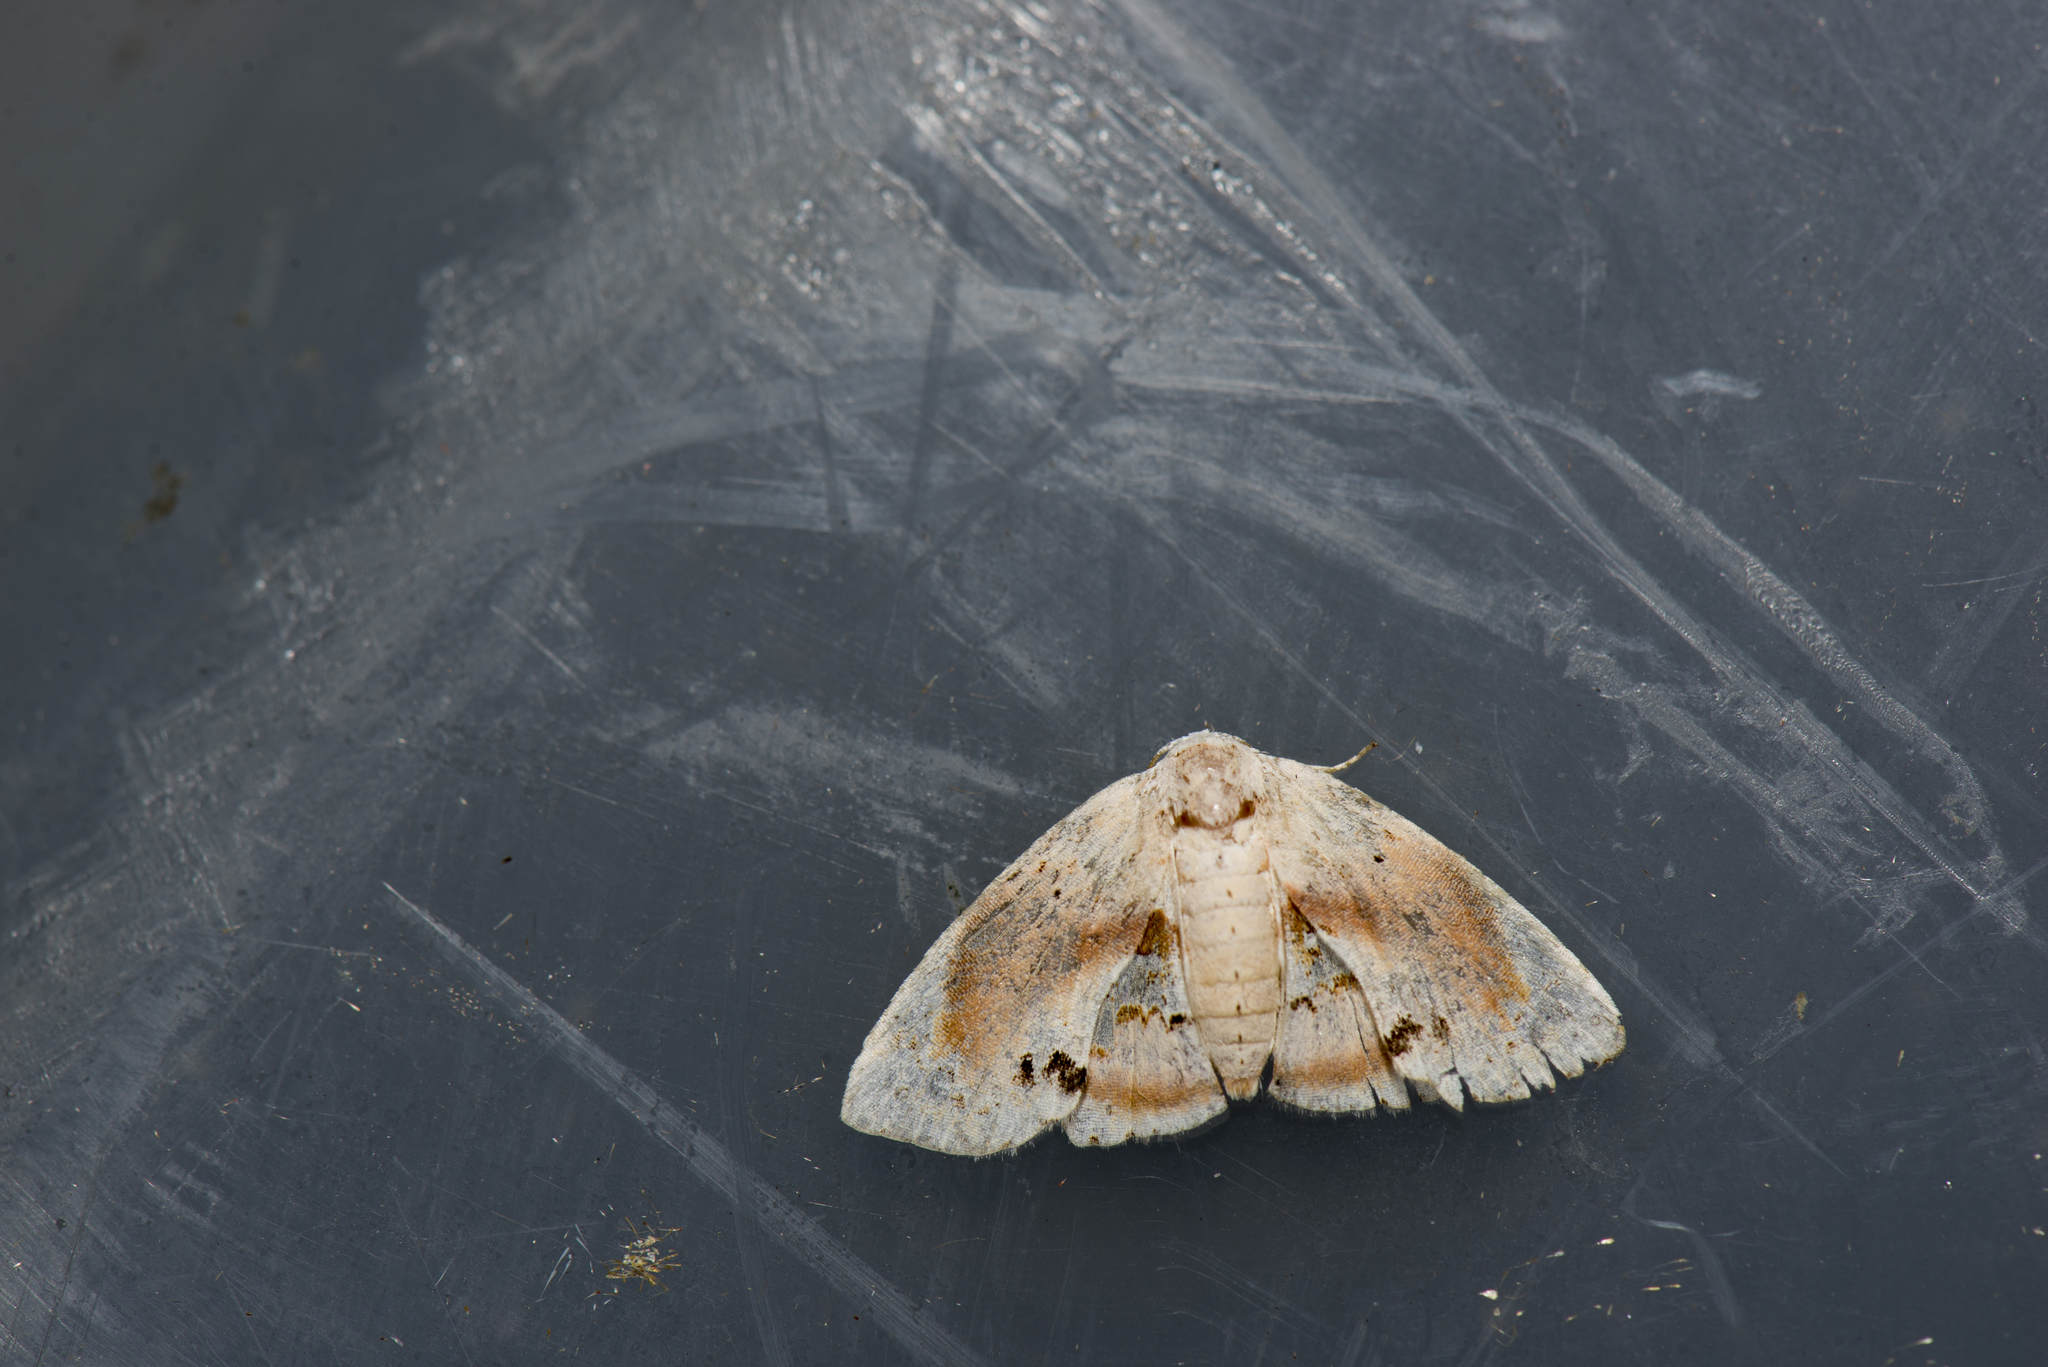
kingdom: Animalia
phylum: Arthropoda
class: Insecta
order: Lepidoptera
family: Noctuidae
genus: Holocryptis
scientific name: Holocryptis erubescens
